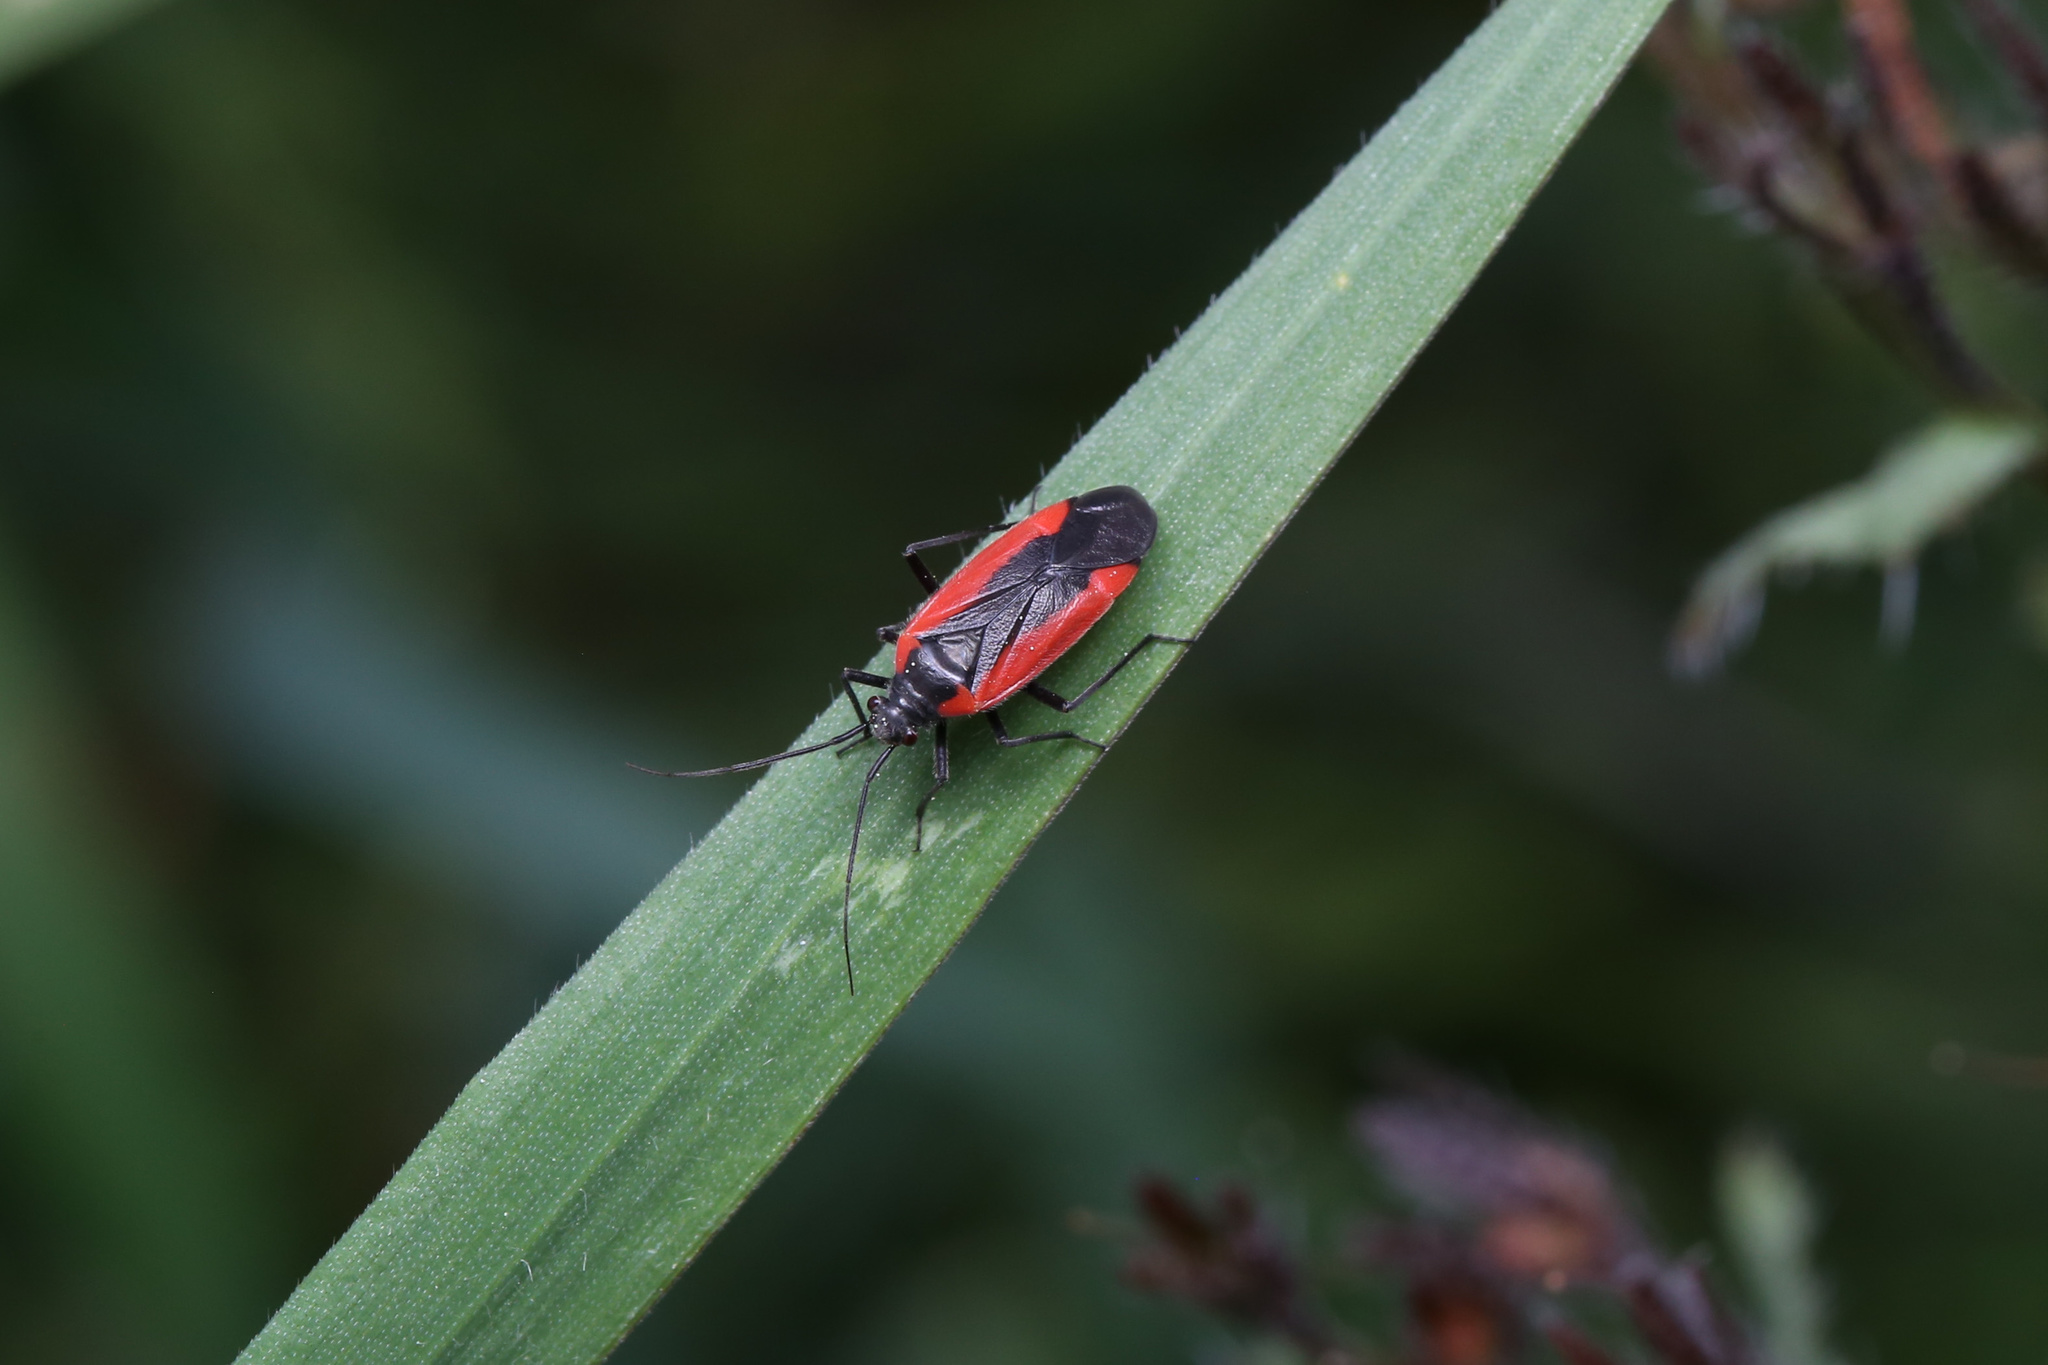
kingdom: Animalia
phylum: Arthropoda
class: Insecta
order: Hemiptera
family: Miridae
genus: Dionconotus
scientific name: Dionconotus neglectus
